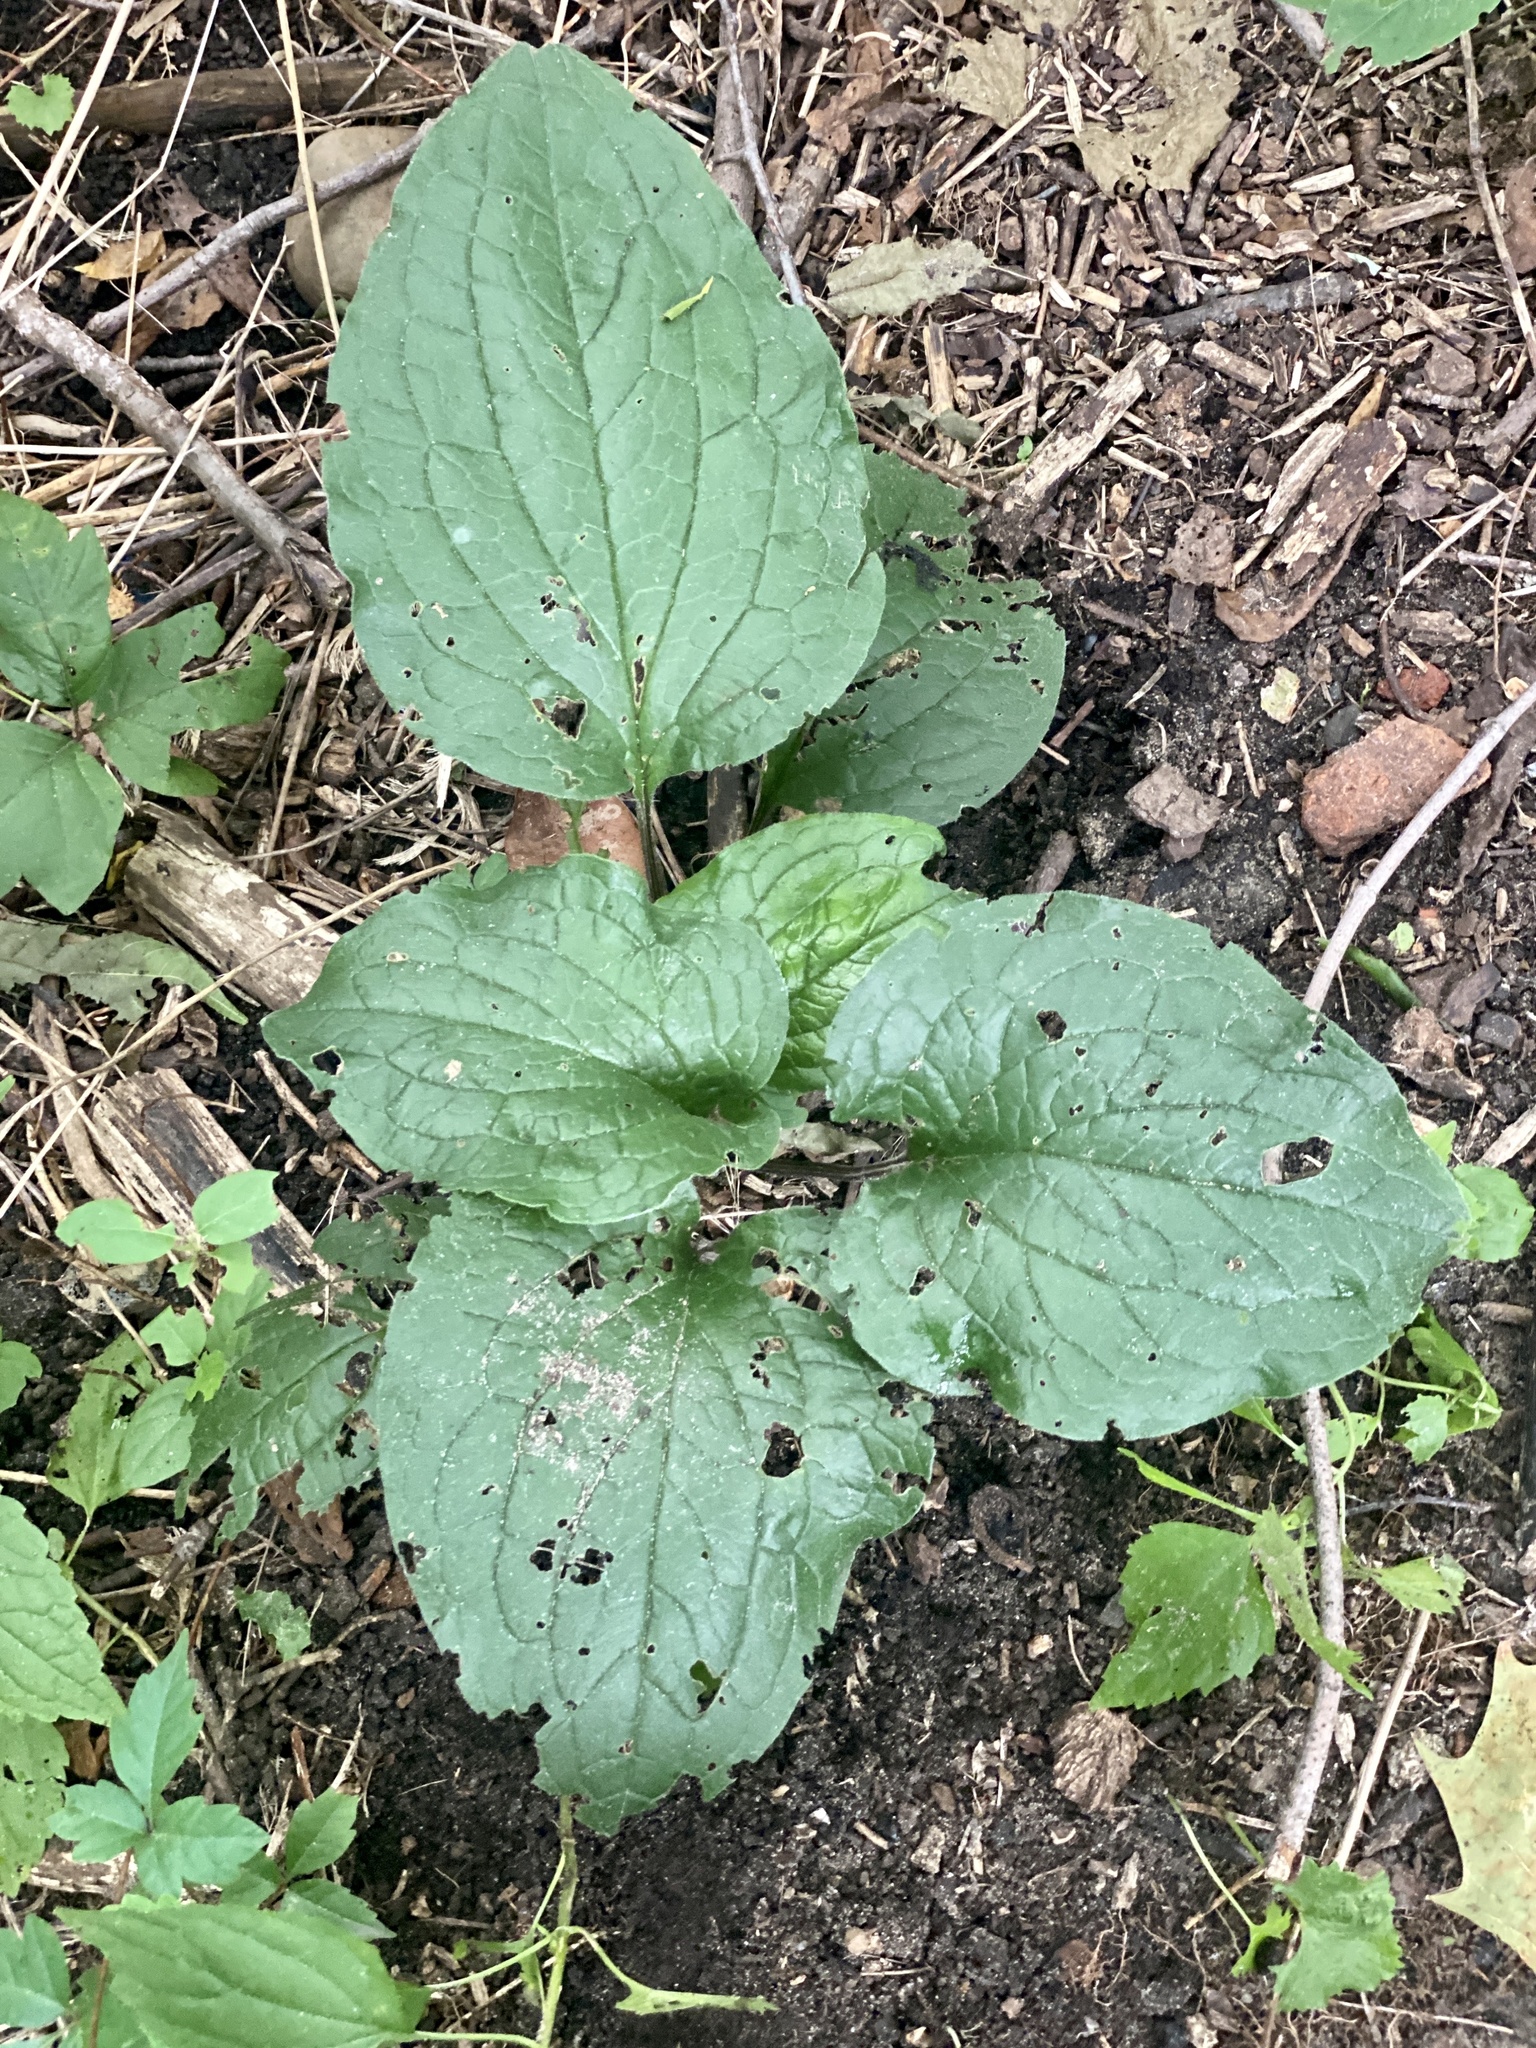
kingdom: Plantae
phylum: Tracheophyta
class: Magnoliopsida
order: Boraginales
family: Boraginaceae
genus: Hackelia
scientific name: Hackelia virginiana
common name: Beggar's-lice
